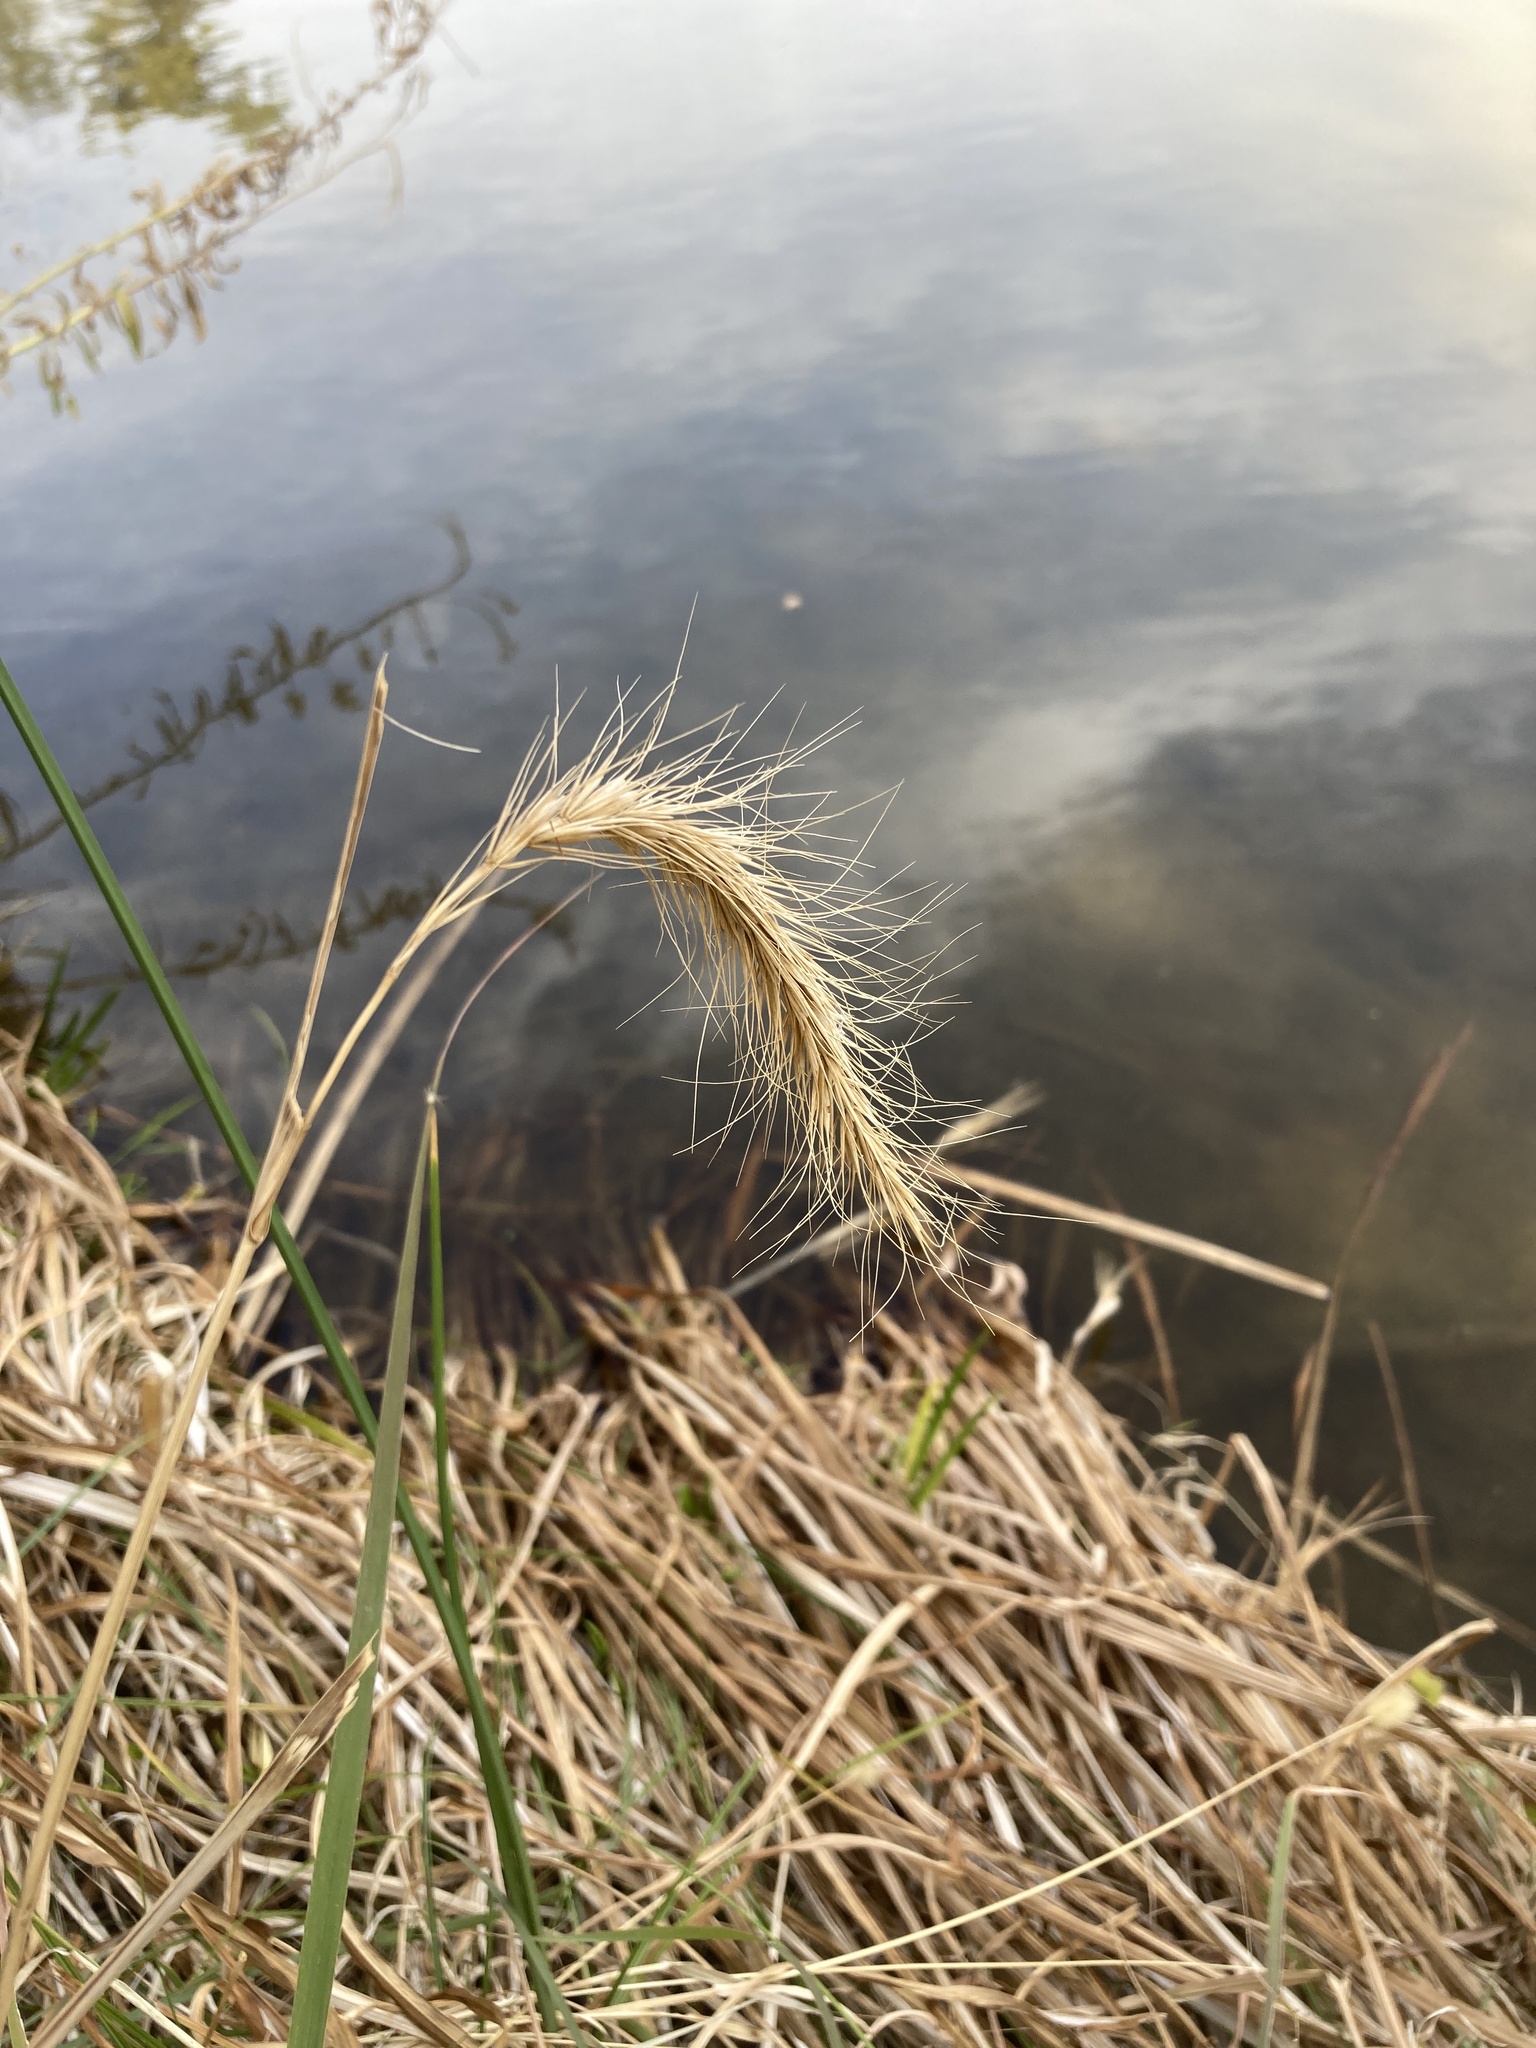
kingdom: Plantae
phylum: Tracheophyta
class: Liliopsida
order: Poales
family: Poaceae
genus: Elymus
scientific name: Elymus canadensis
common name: Canada wild rye
